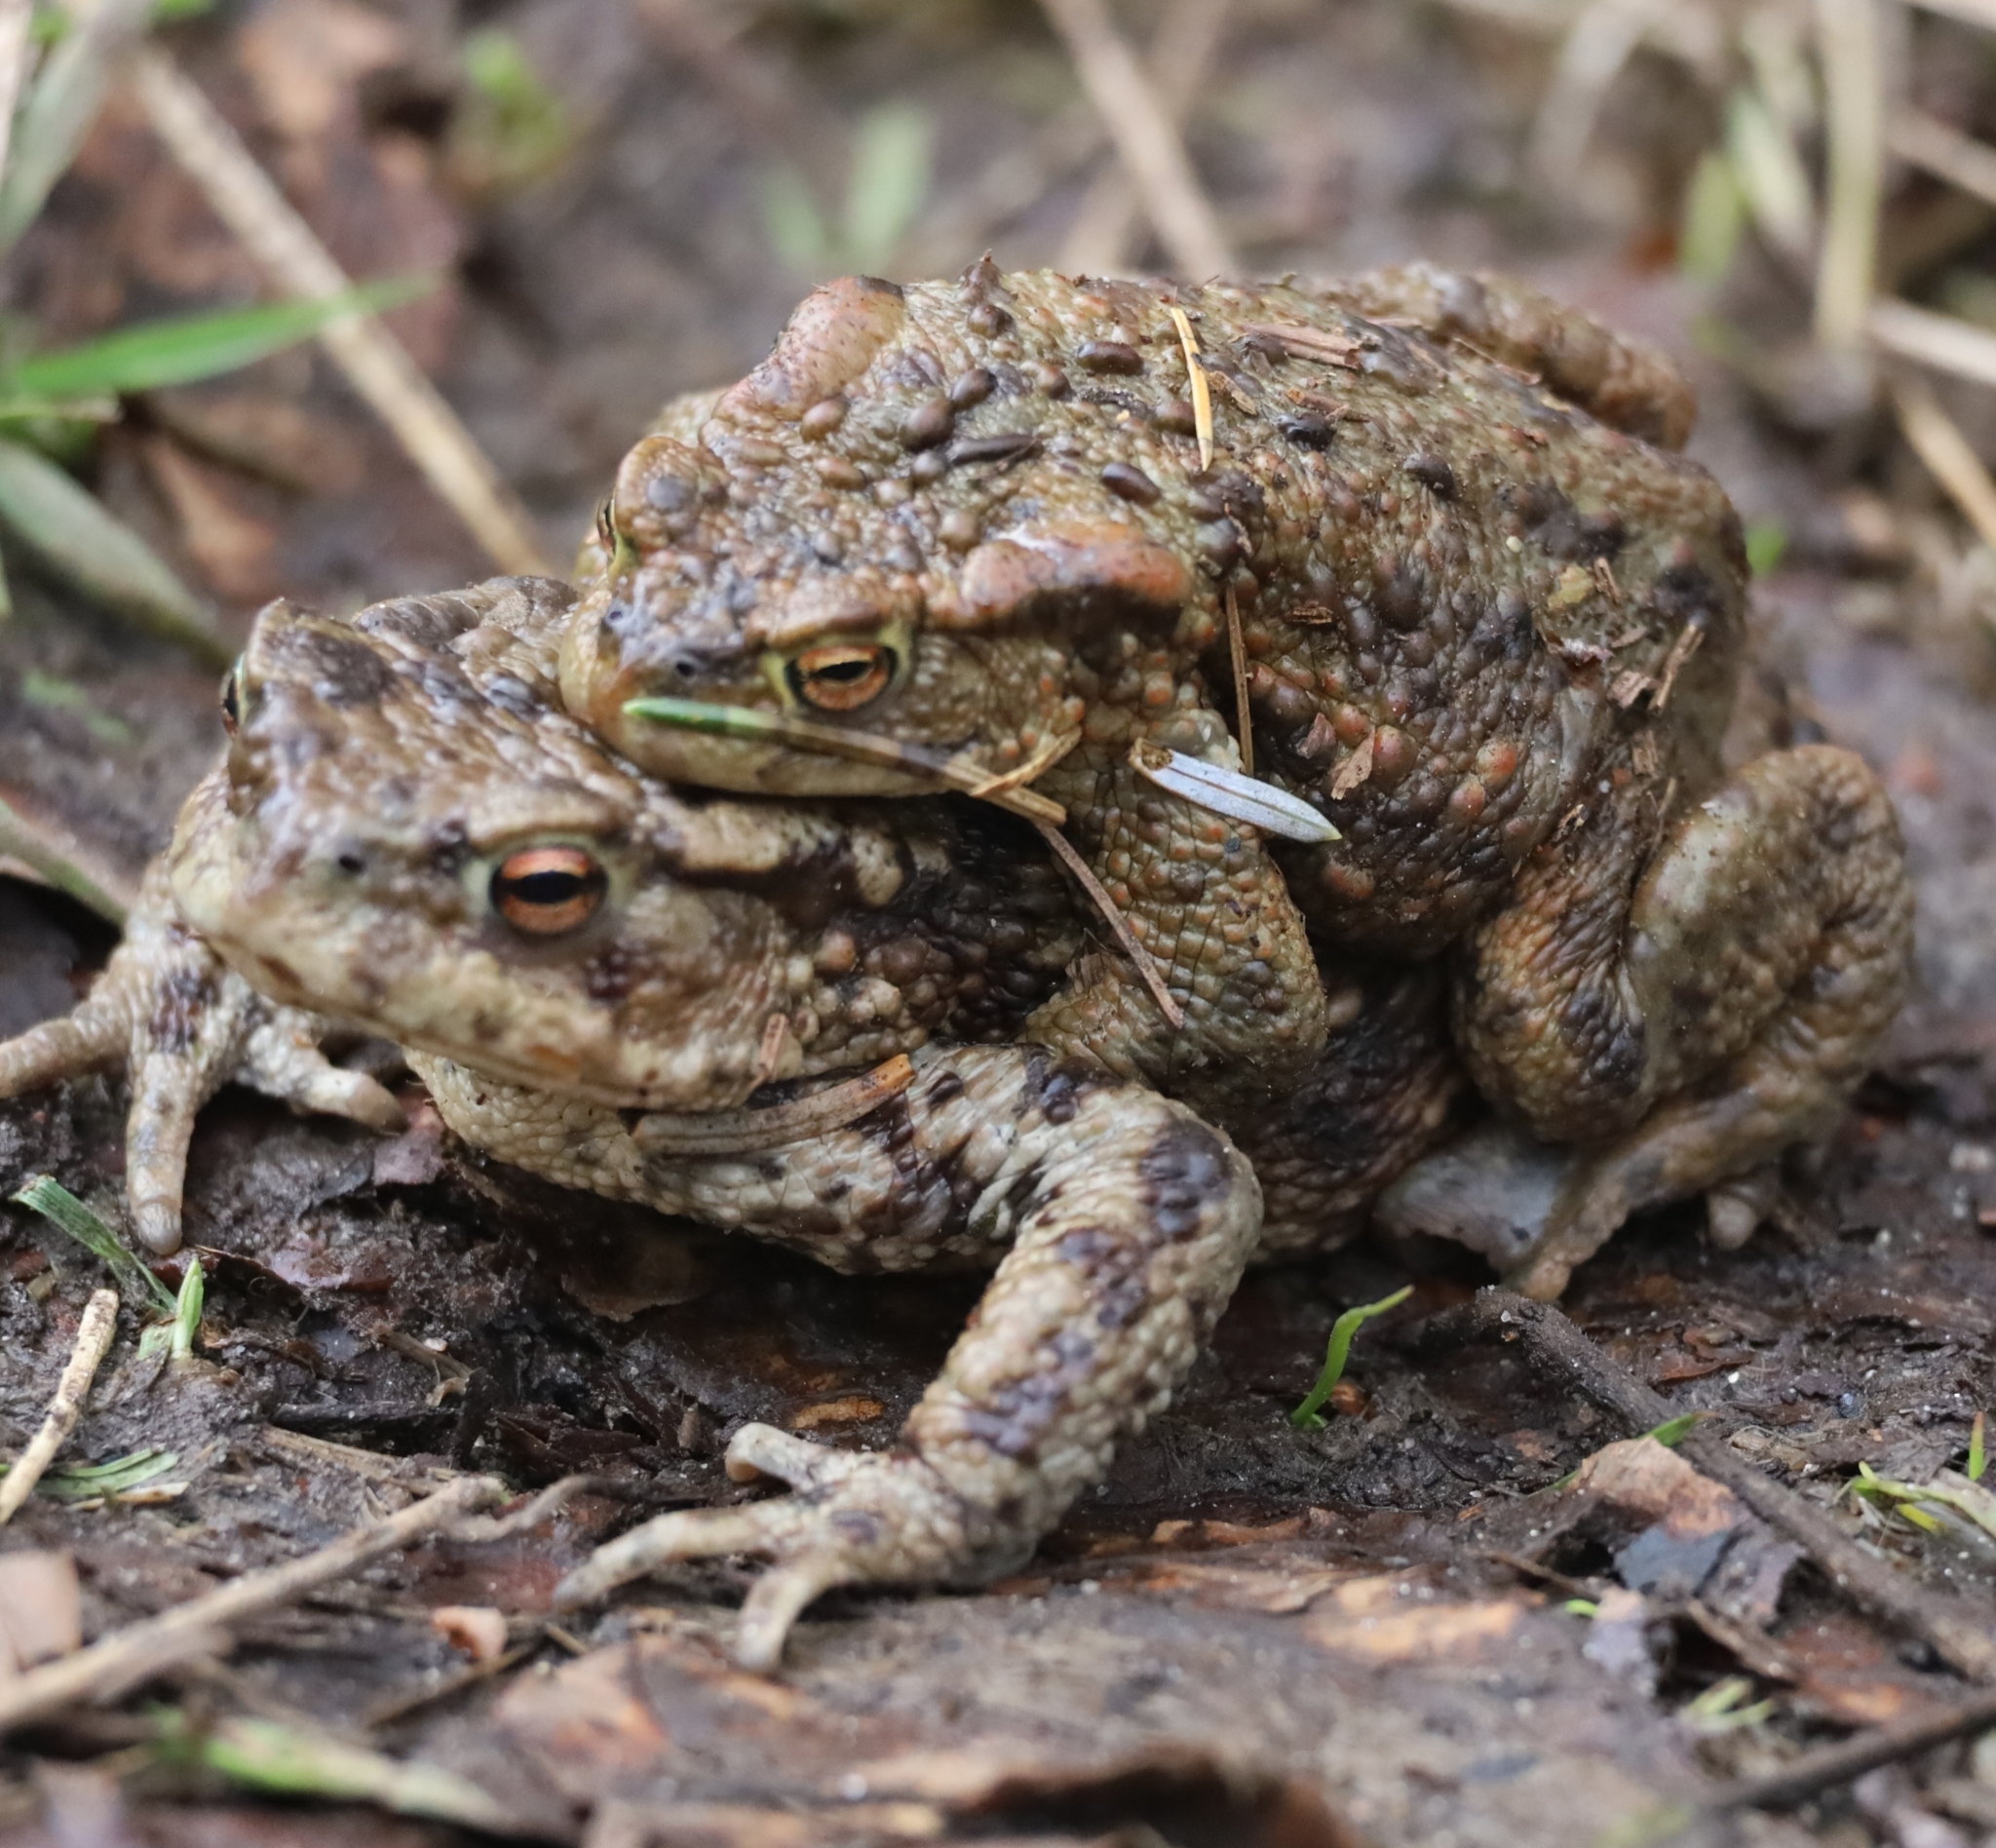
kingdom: Animalia
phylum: Chordata
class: Amphibia
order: Anura
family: Bufonidae
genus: Bufo
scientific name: Bufo bufo
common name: Common toad
